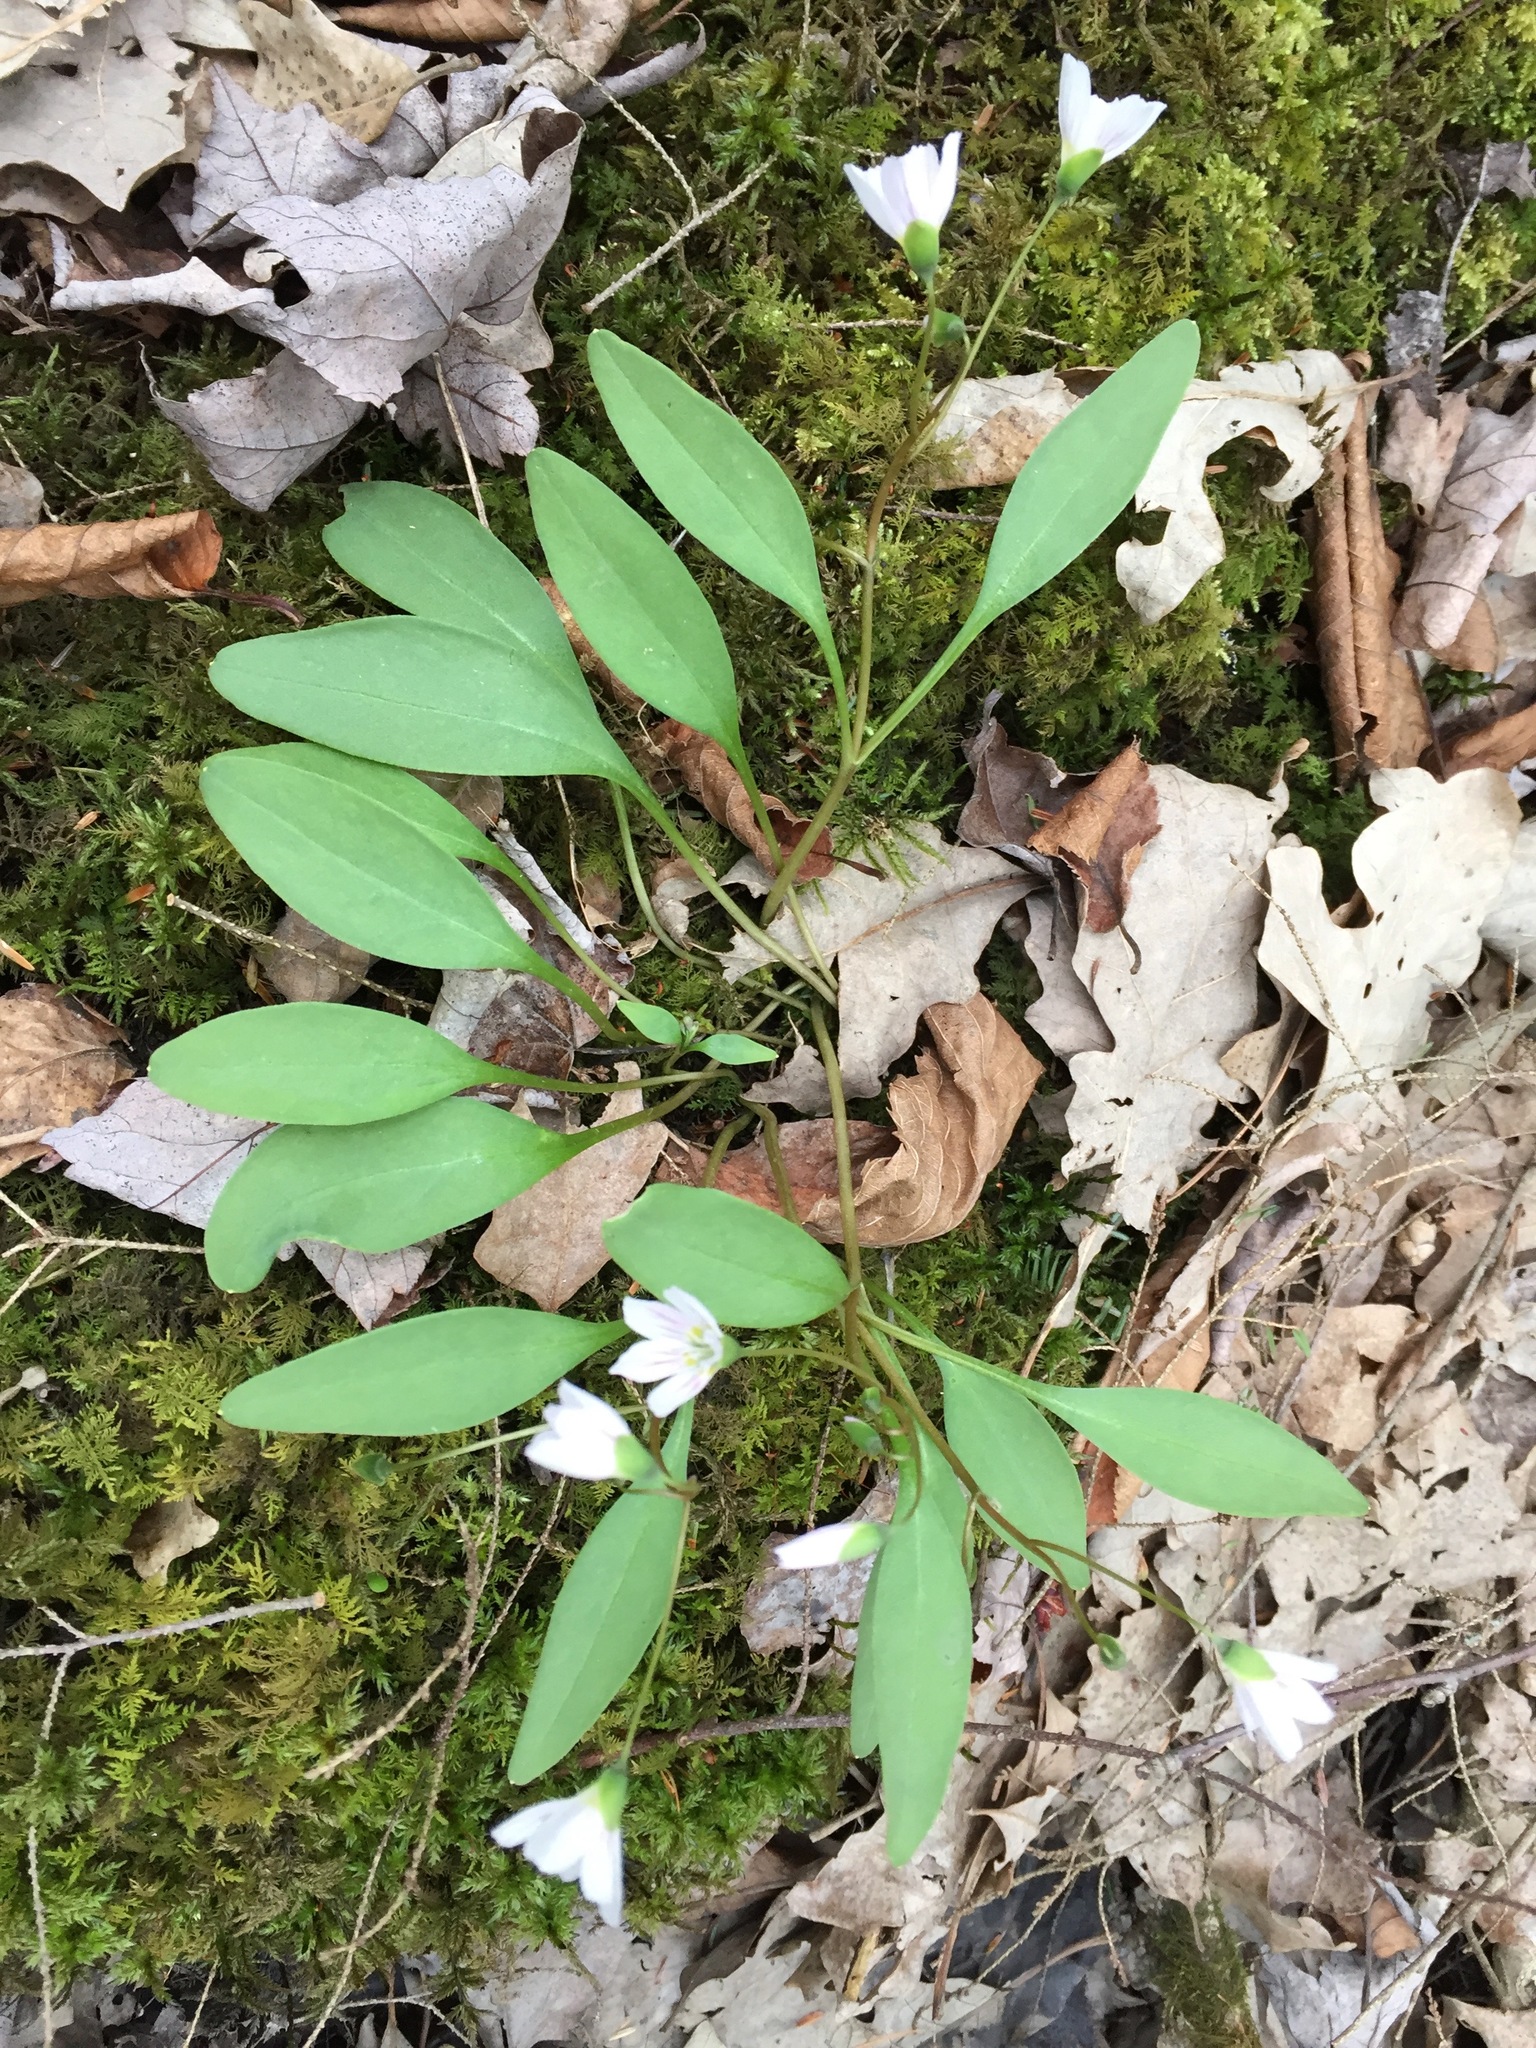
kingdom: Plantae
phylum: Tracheophyta
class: Magnoliopsida
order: Caryophyllales
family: Montiaceae
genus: Claytonia
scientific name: Claytonia caroliniana
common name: Carolina spring beauty
